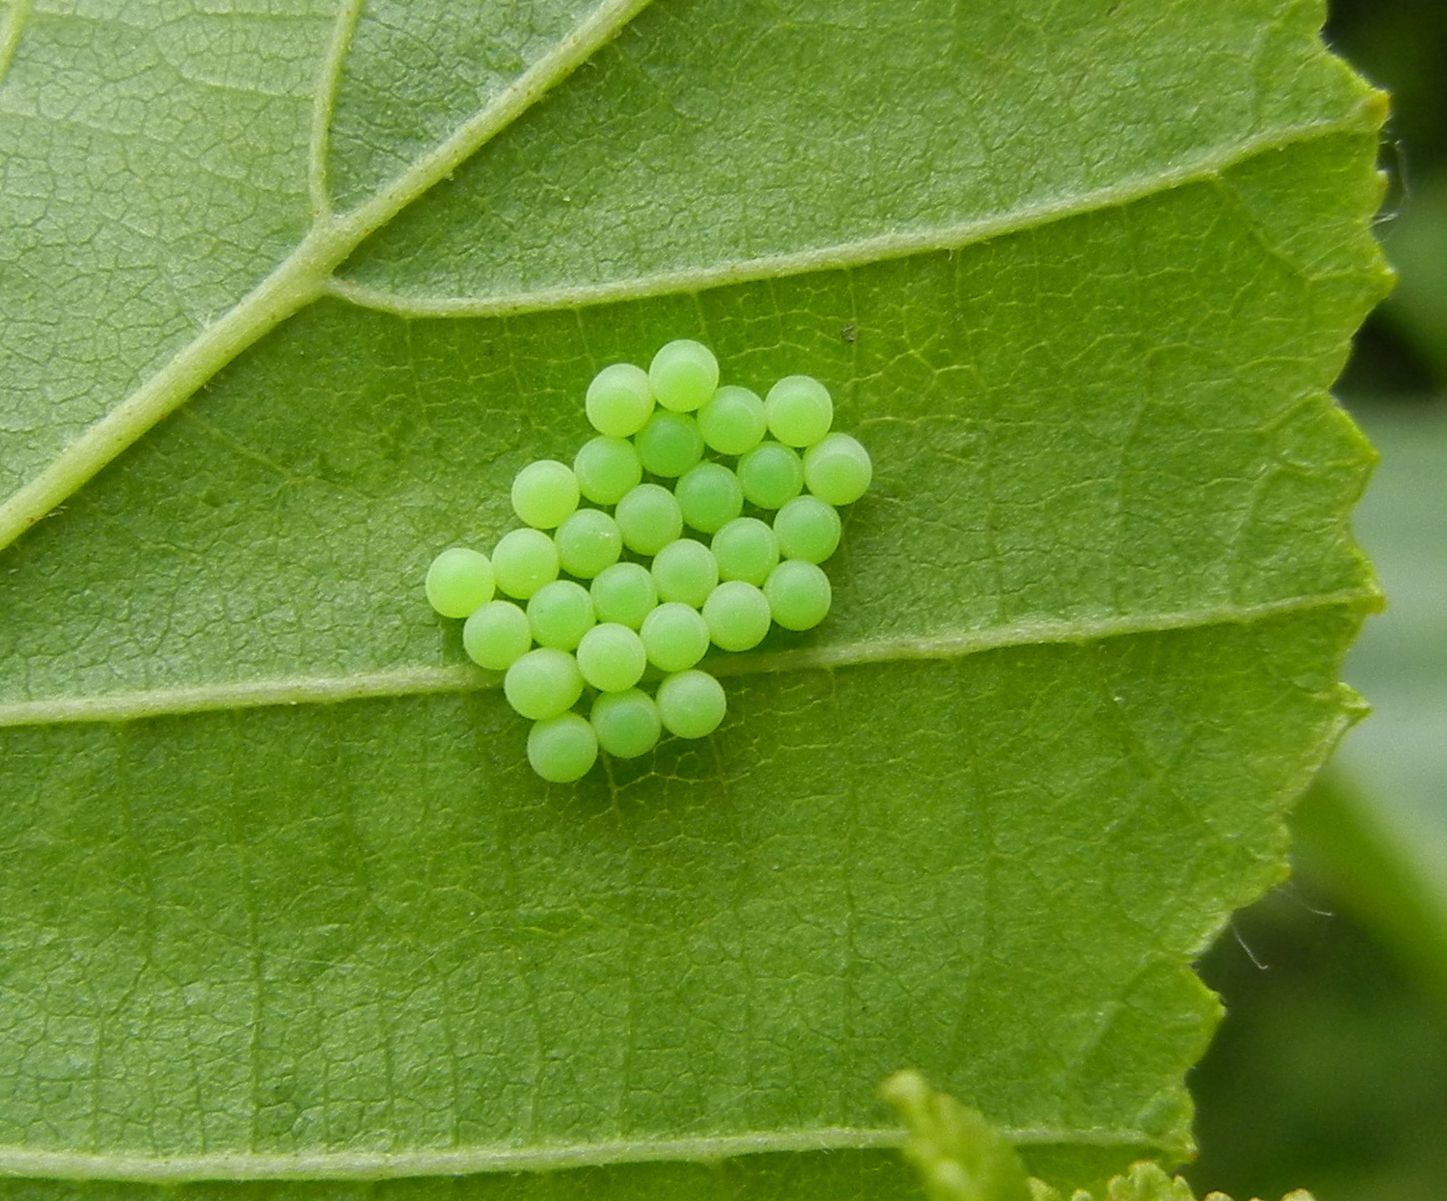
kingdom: Animalia
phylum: Arthropoda
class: Insecta
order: Hemiptera
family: Pentatomidae
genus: Palomena
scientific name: Palomena prasina
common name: Green shieldbug
